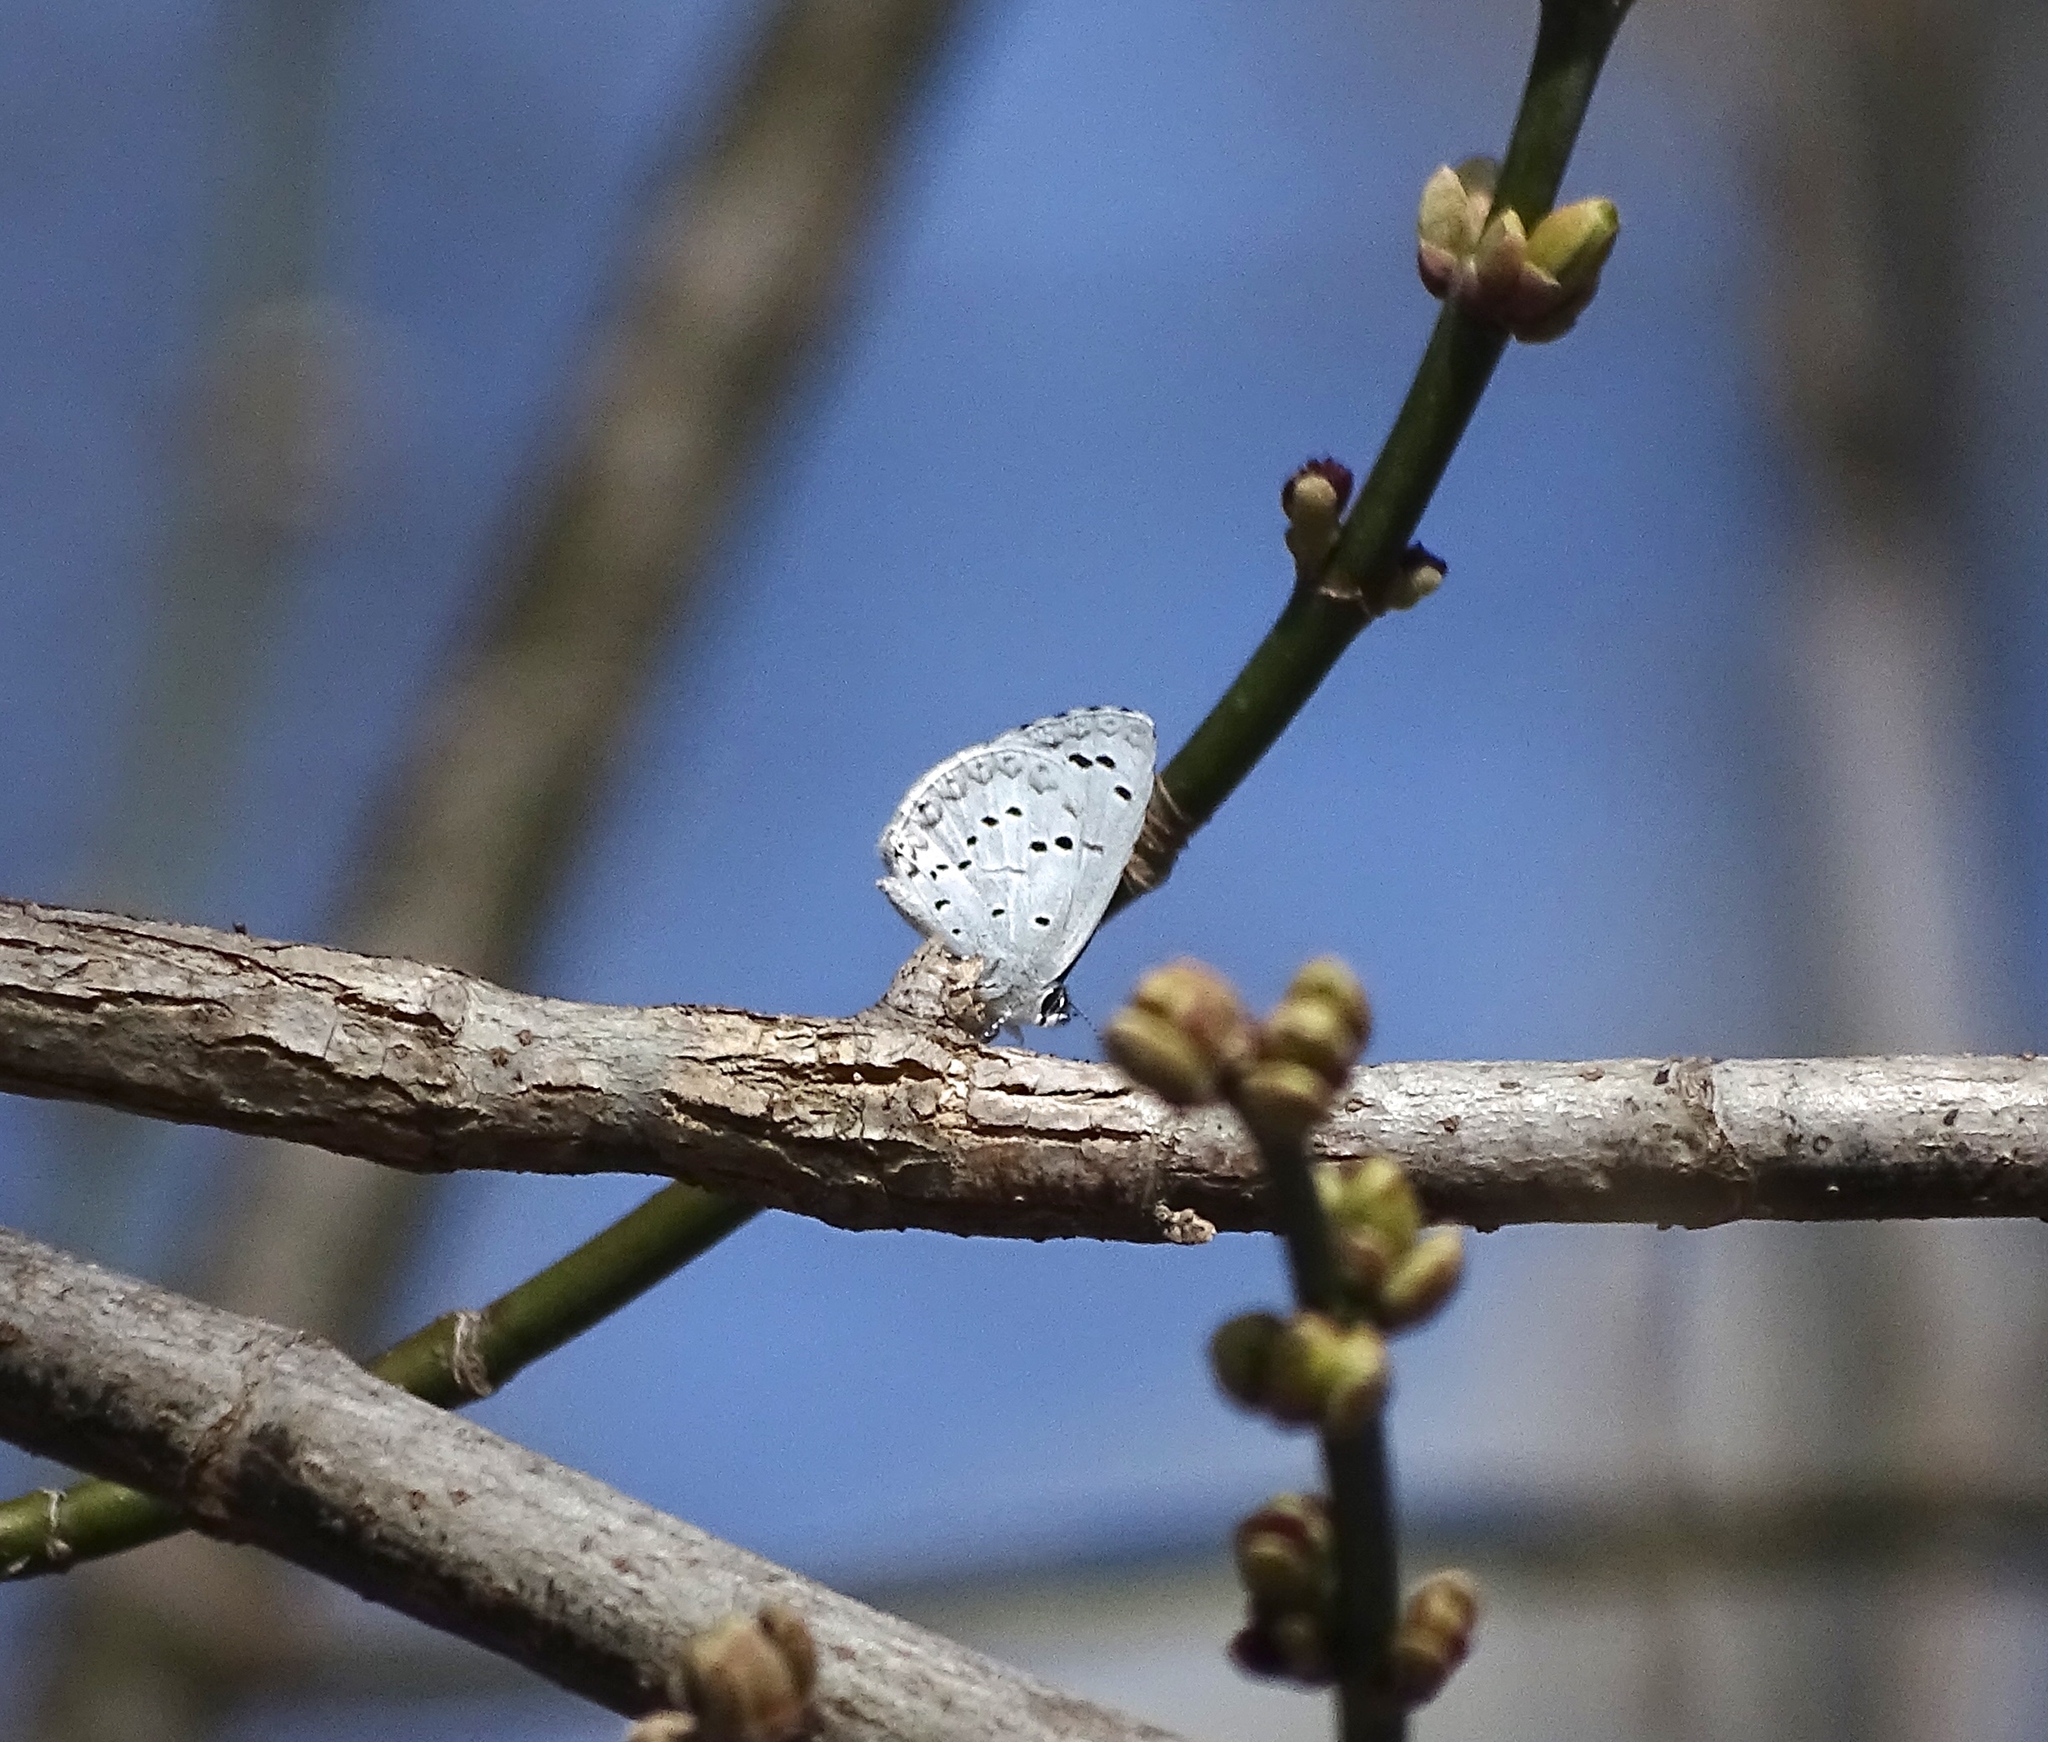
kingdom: Animalia
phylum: Arthropoda
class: Insecta
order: Lepidoptera
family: Lycaenidae
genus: Celastrina
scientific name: Celastrina ladon
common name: Spring azure
